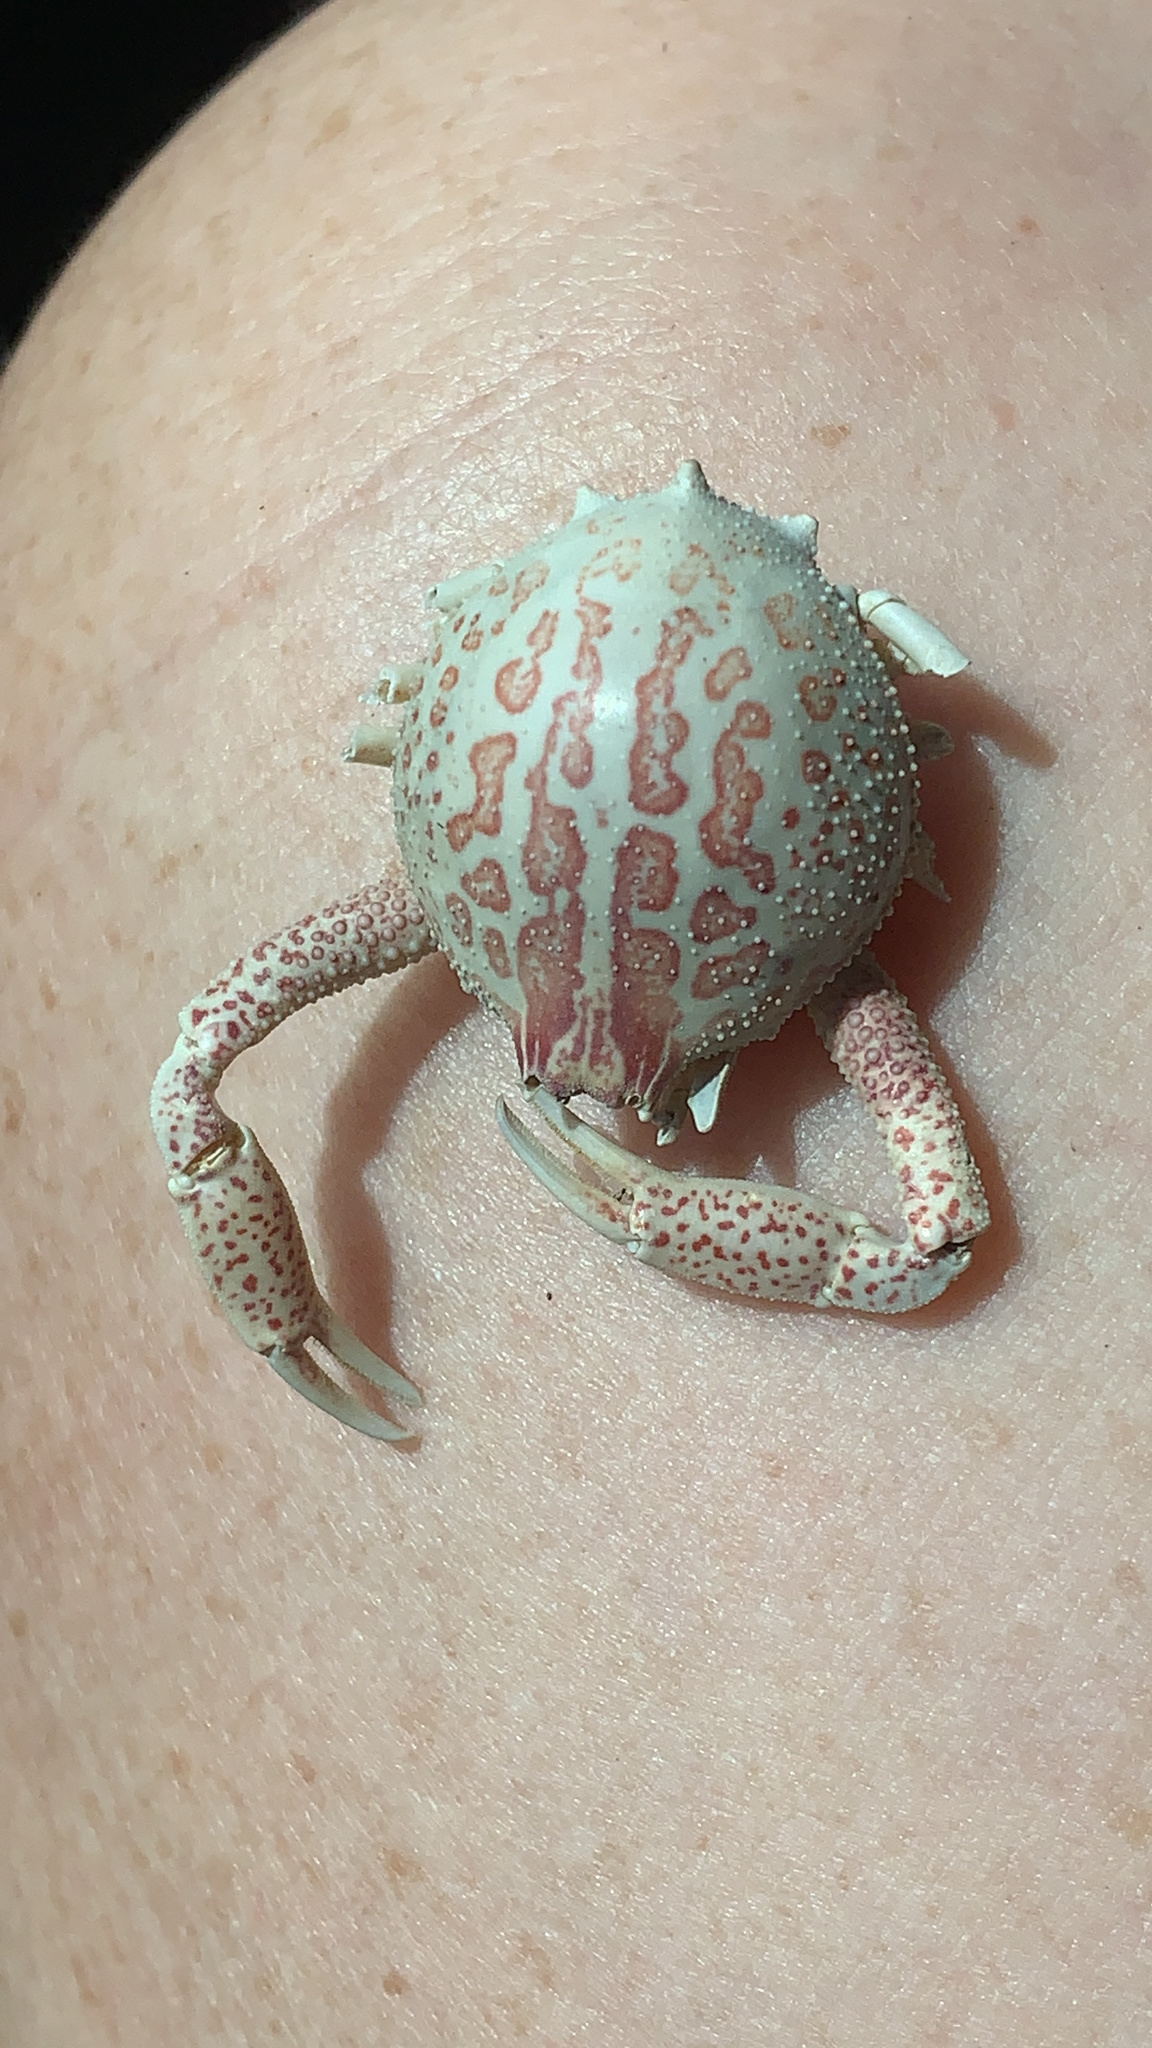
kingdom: Animalia
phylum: Arthropoda
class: Malacostraca
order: Decapoda
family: Leucosiidae
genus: Persephona
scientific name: Persephona aquilonaris
